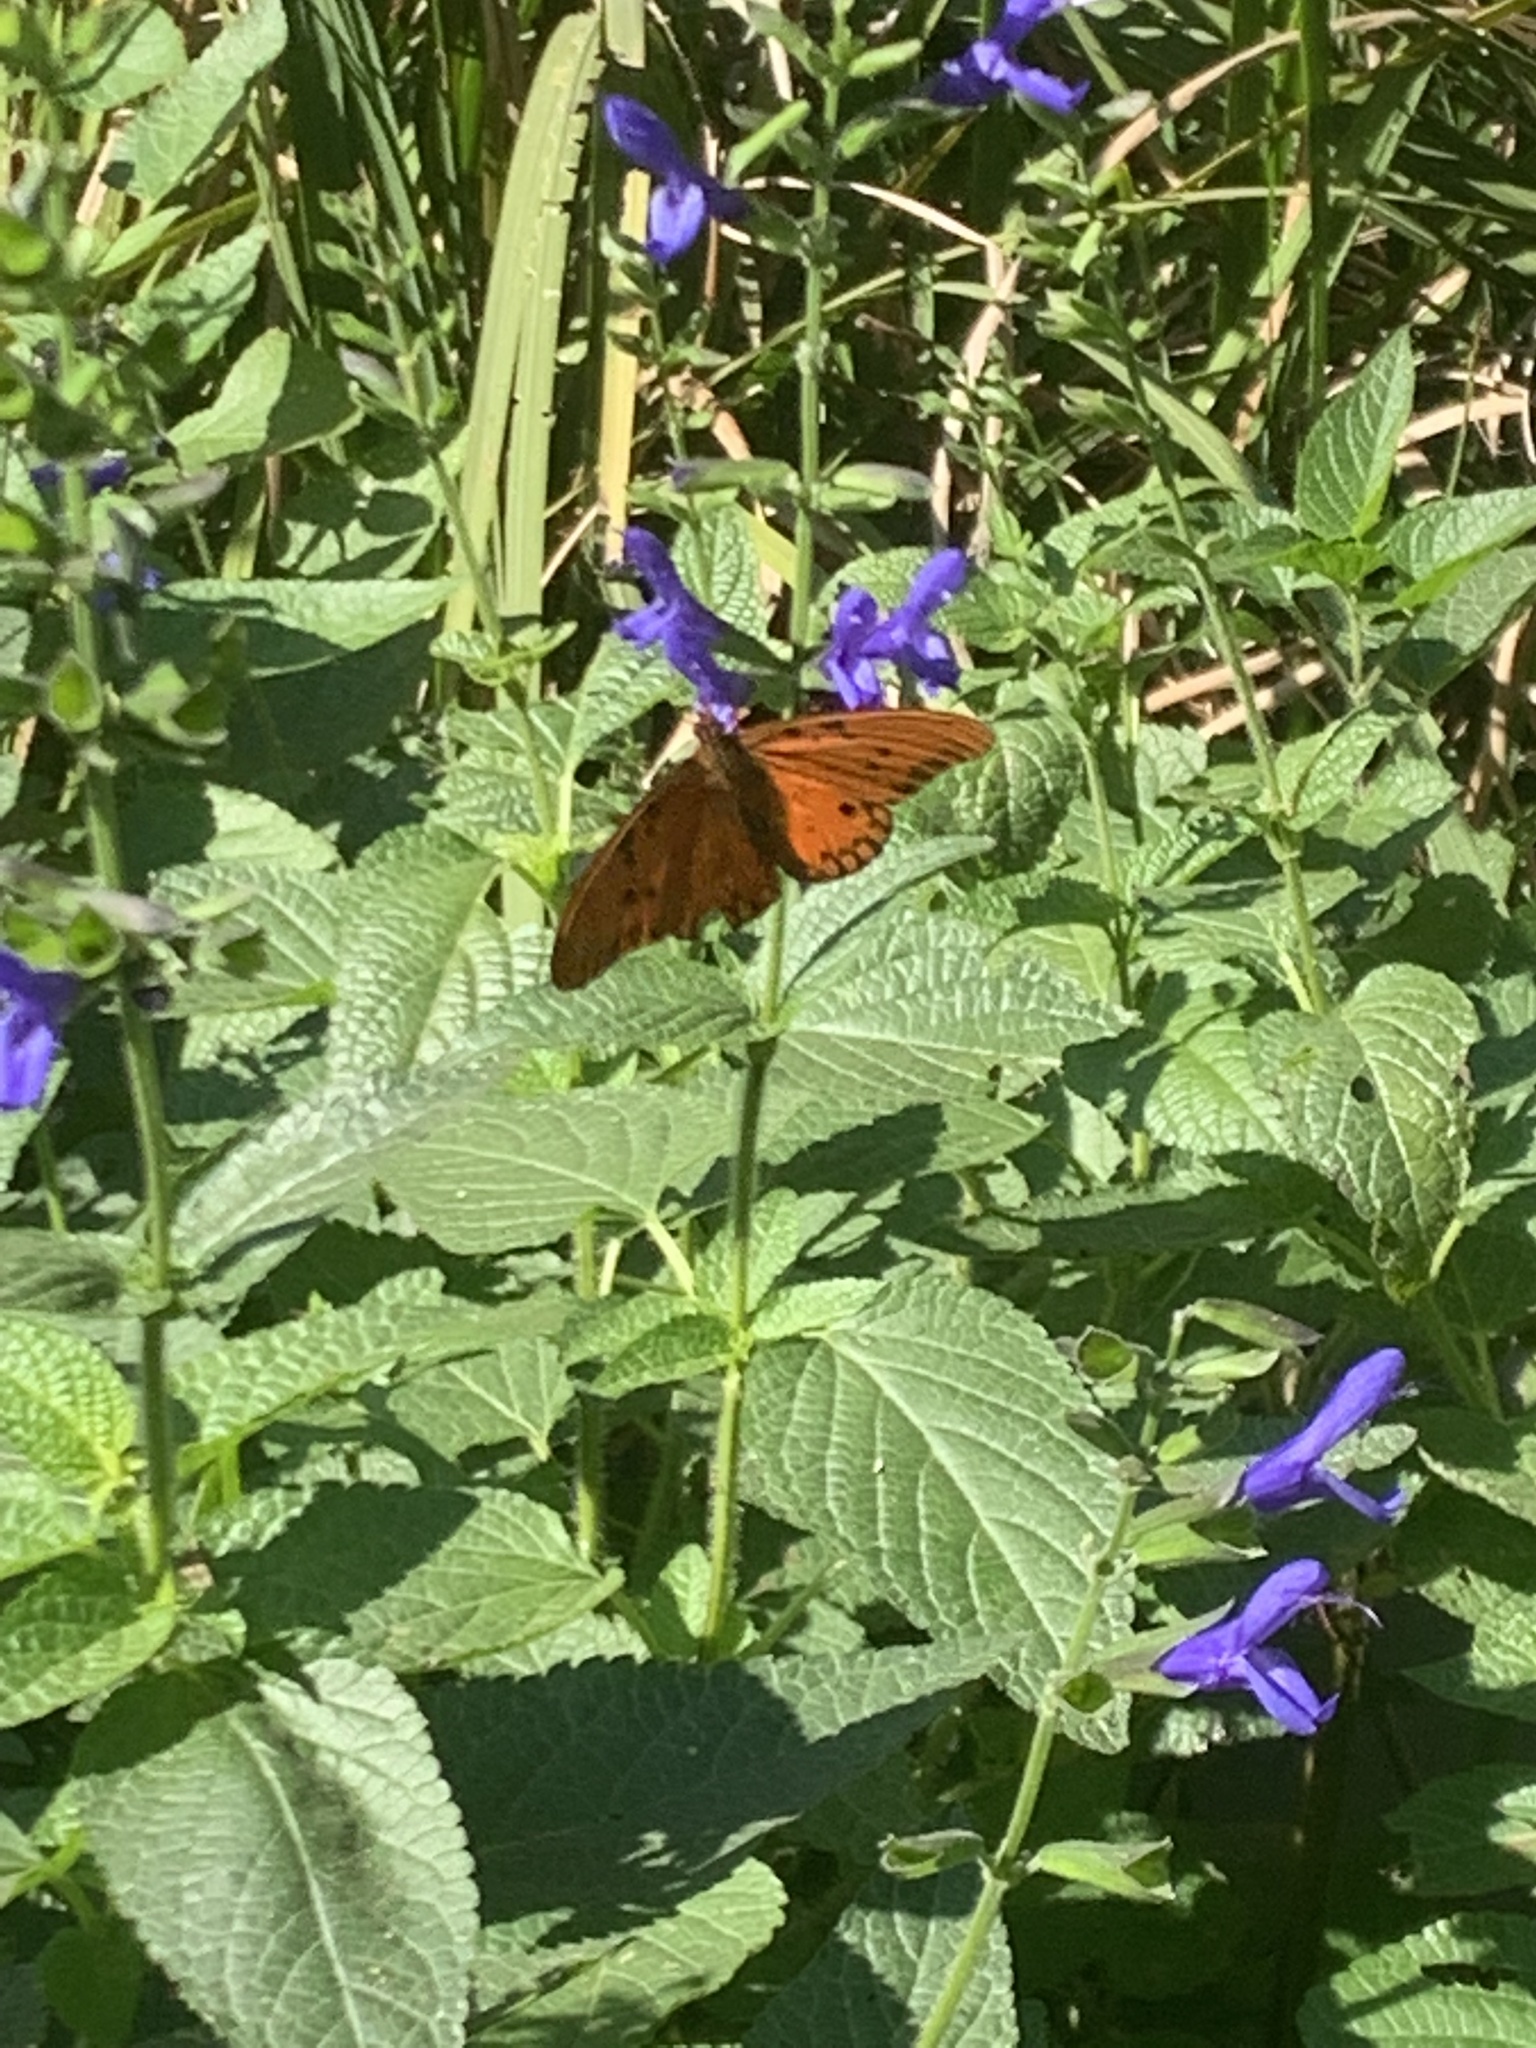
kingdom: Animalia
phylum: Arthropoda
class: Insecta
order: Lepidoptera
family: Nymphalidae
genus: Dione
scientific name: Dione vanillae
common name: Gulf fritillary
